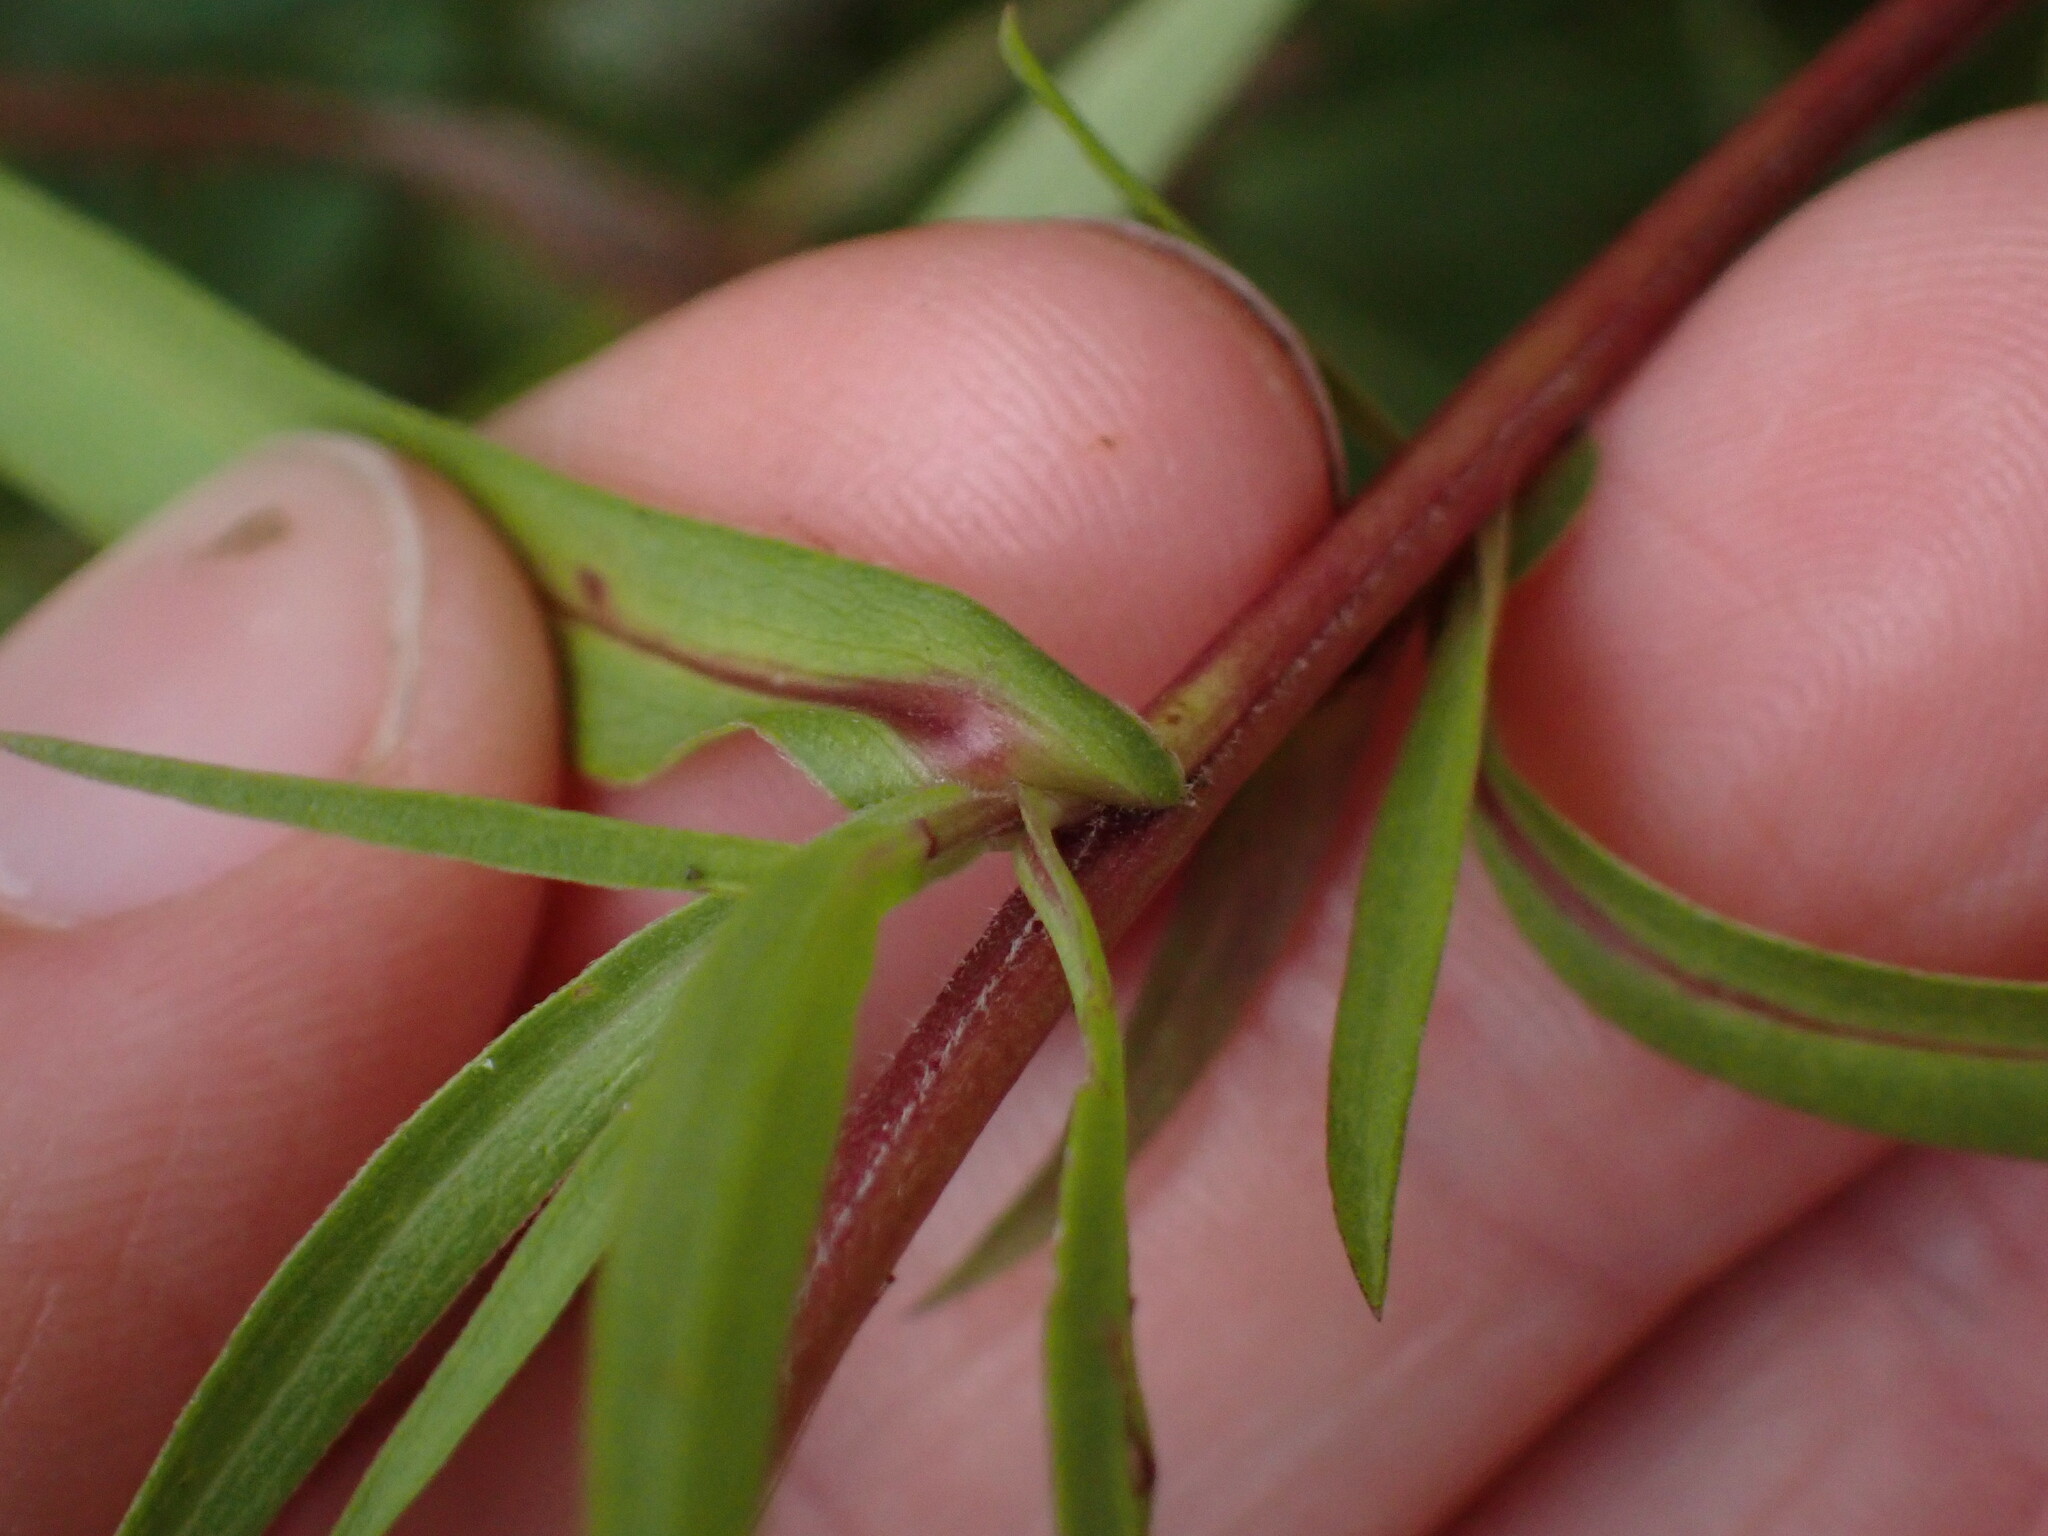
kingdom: Plantae
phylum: Tracheophyta
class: Magnoliopsida
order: Asterales
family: Asteraceae
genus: Symphyotrichum
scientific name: Symphyotrichum lanceolatum
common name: Panicled aster
